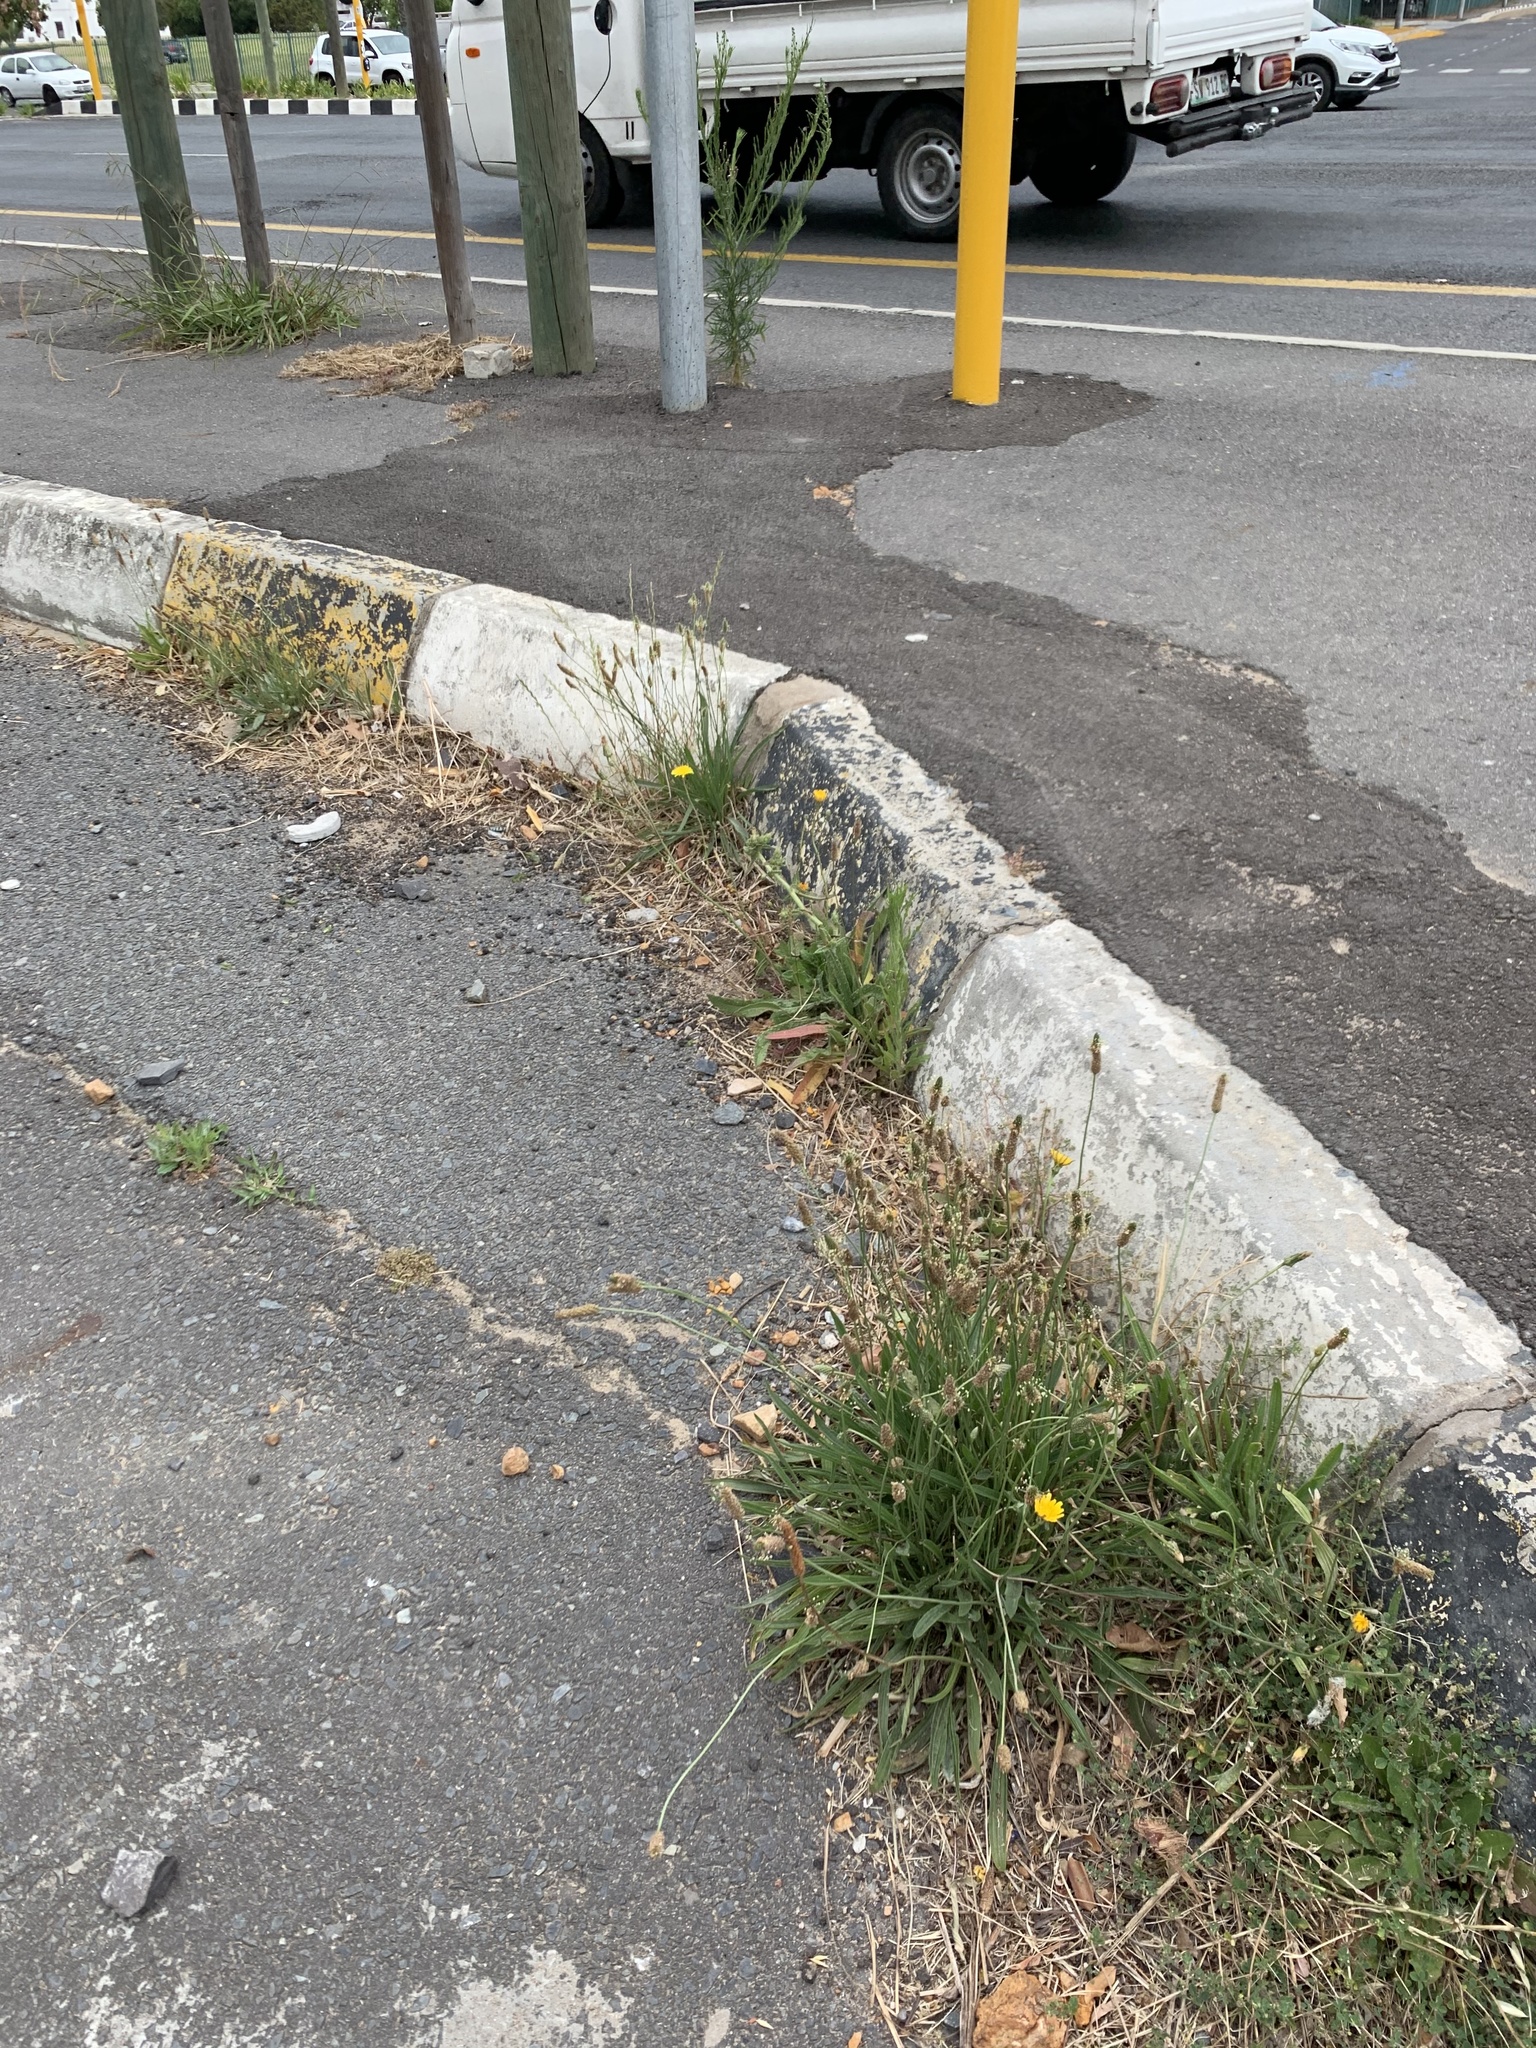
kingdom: Plantae
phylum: Tracheophyta
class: Magnoliopsida
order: Lamiales
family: Plantaginaceae
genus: Plantago
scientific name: Plantago lanceolata
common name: Ribwort plantain
